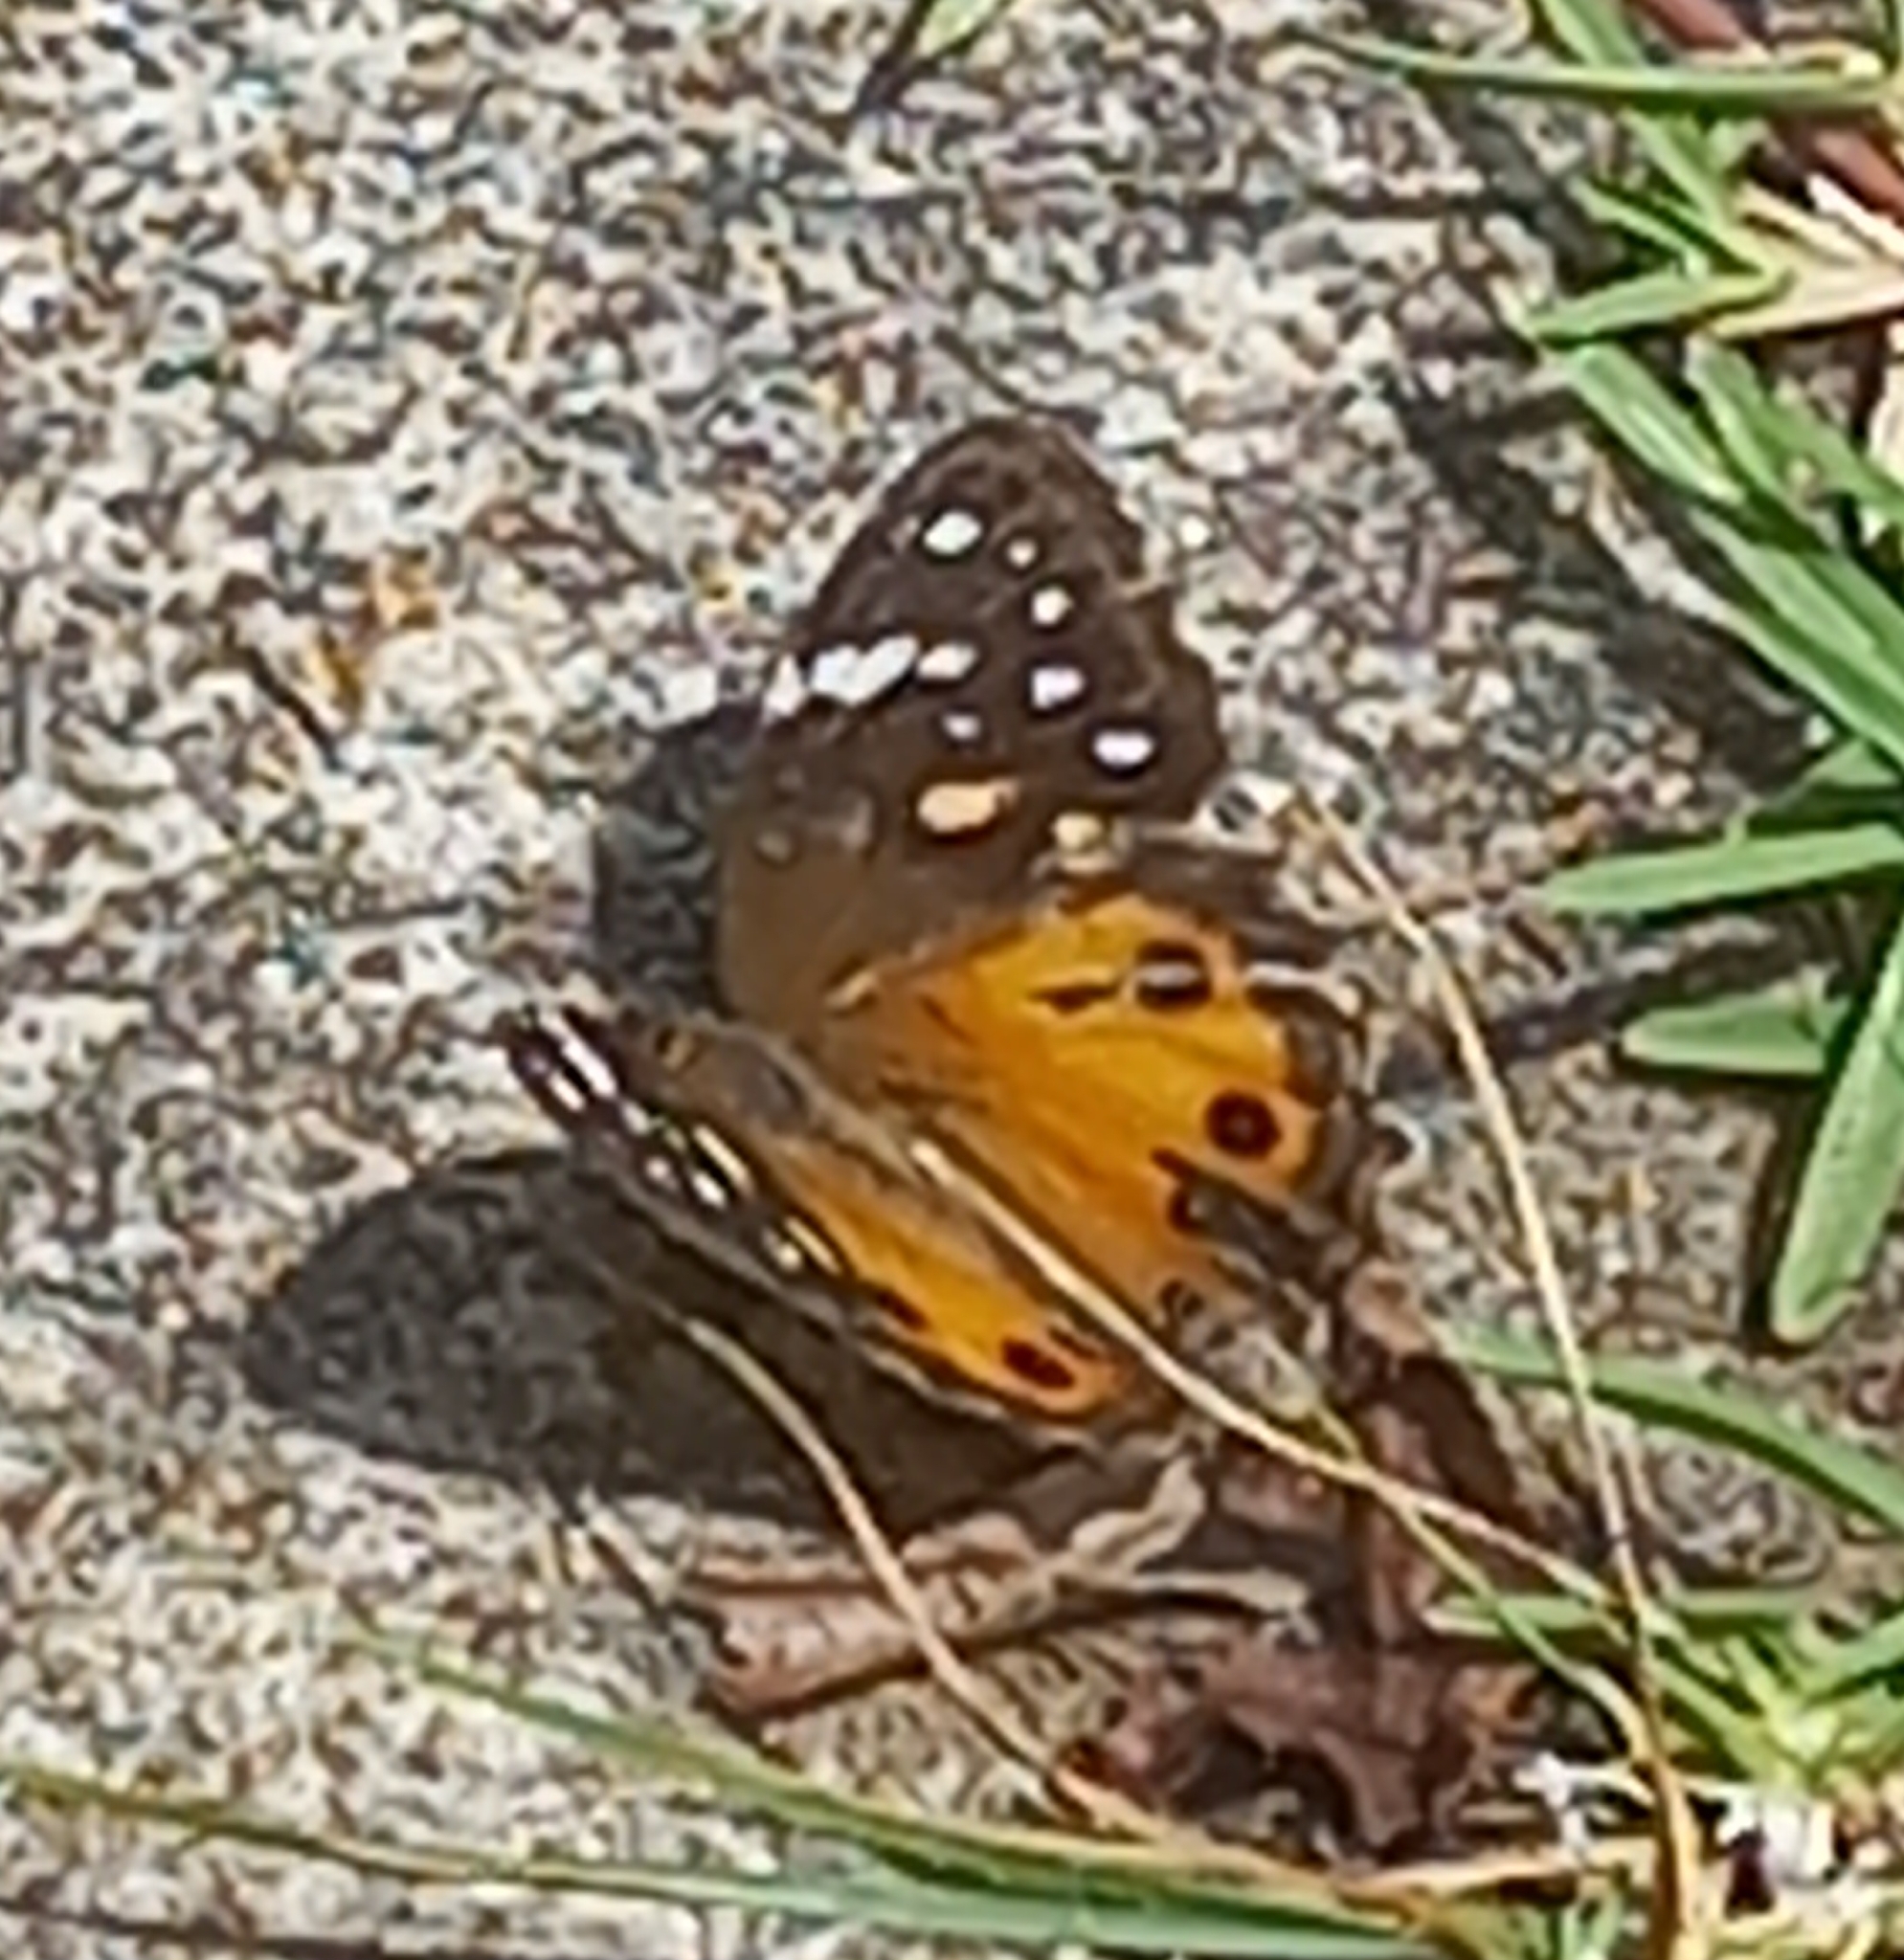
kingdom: Animalia
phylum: Arthropoda
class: Insecta
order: Lepidoptera
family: Nymphalidae
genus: Paralethe
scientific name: Paralethe dendrophilus
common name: Bush beauty
